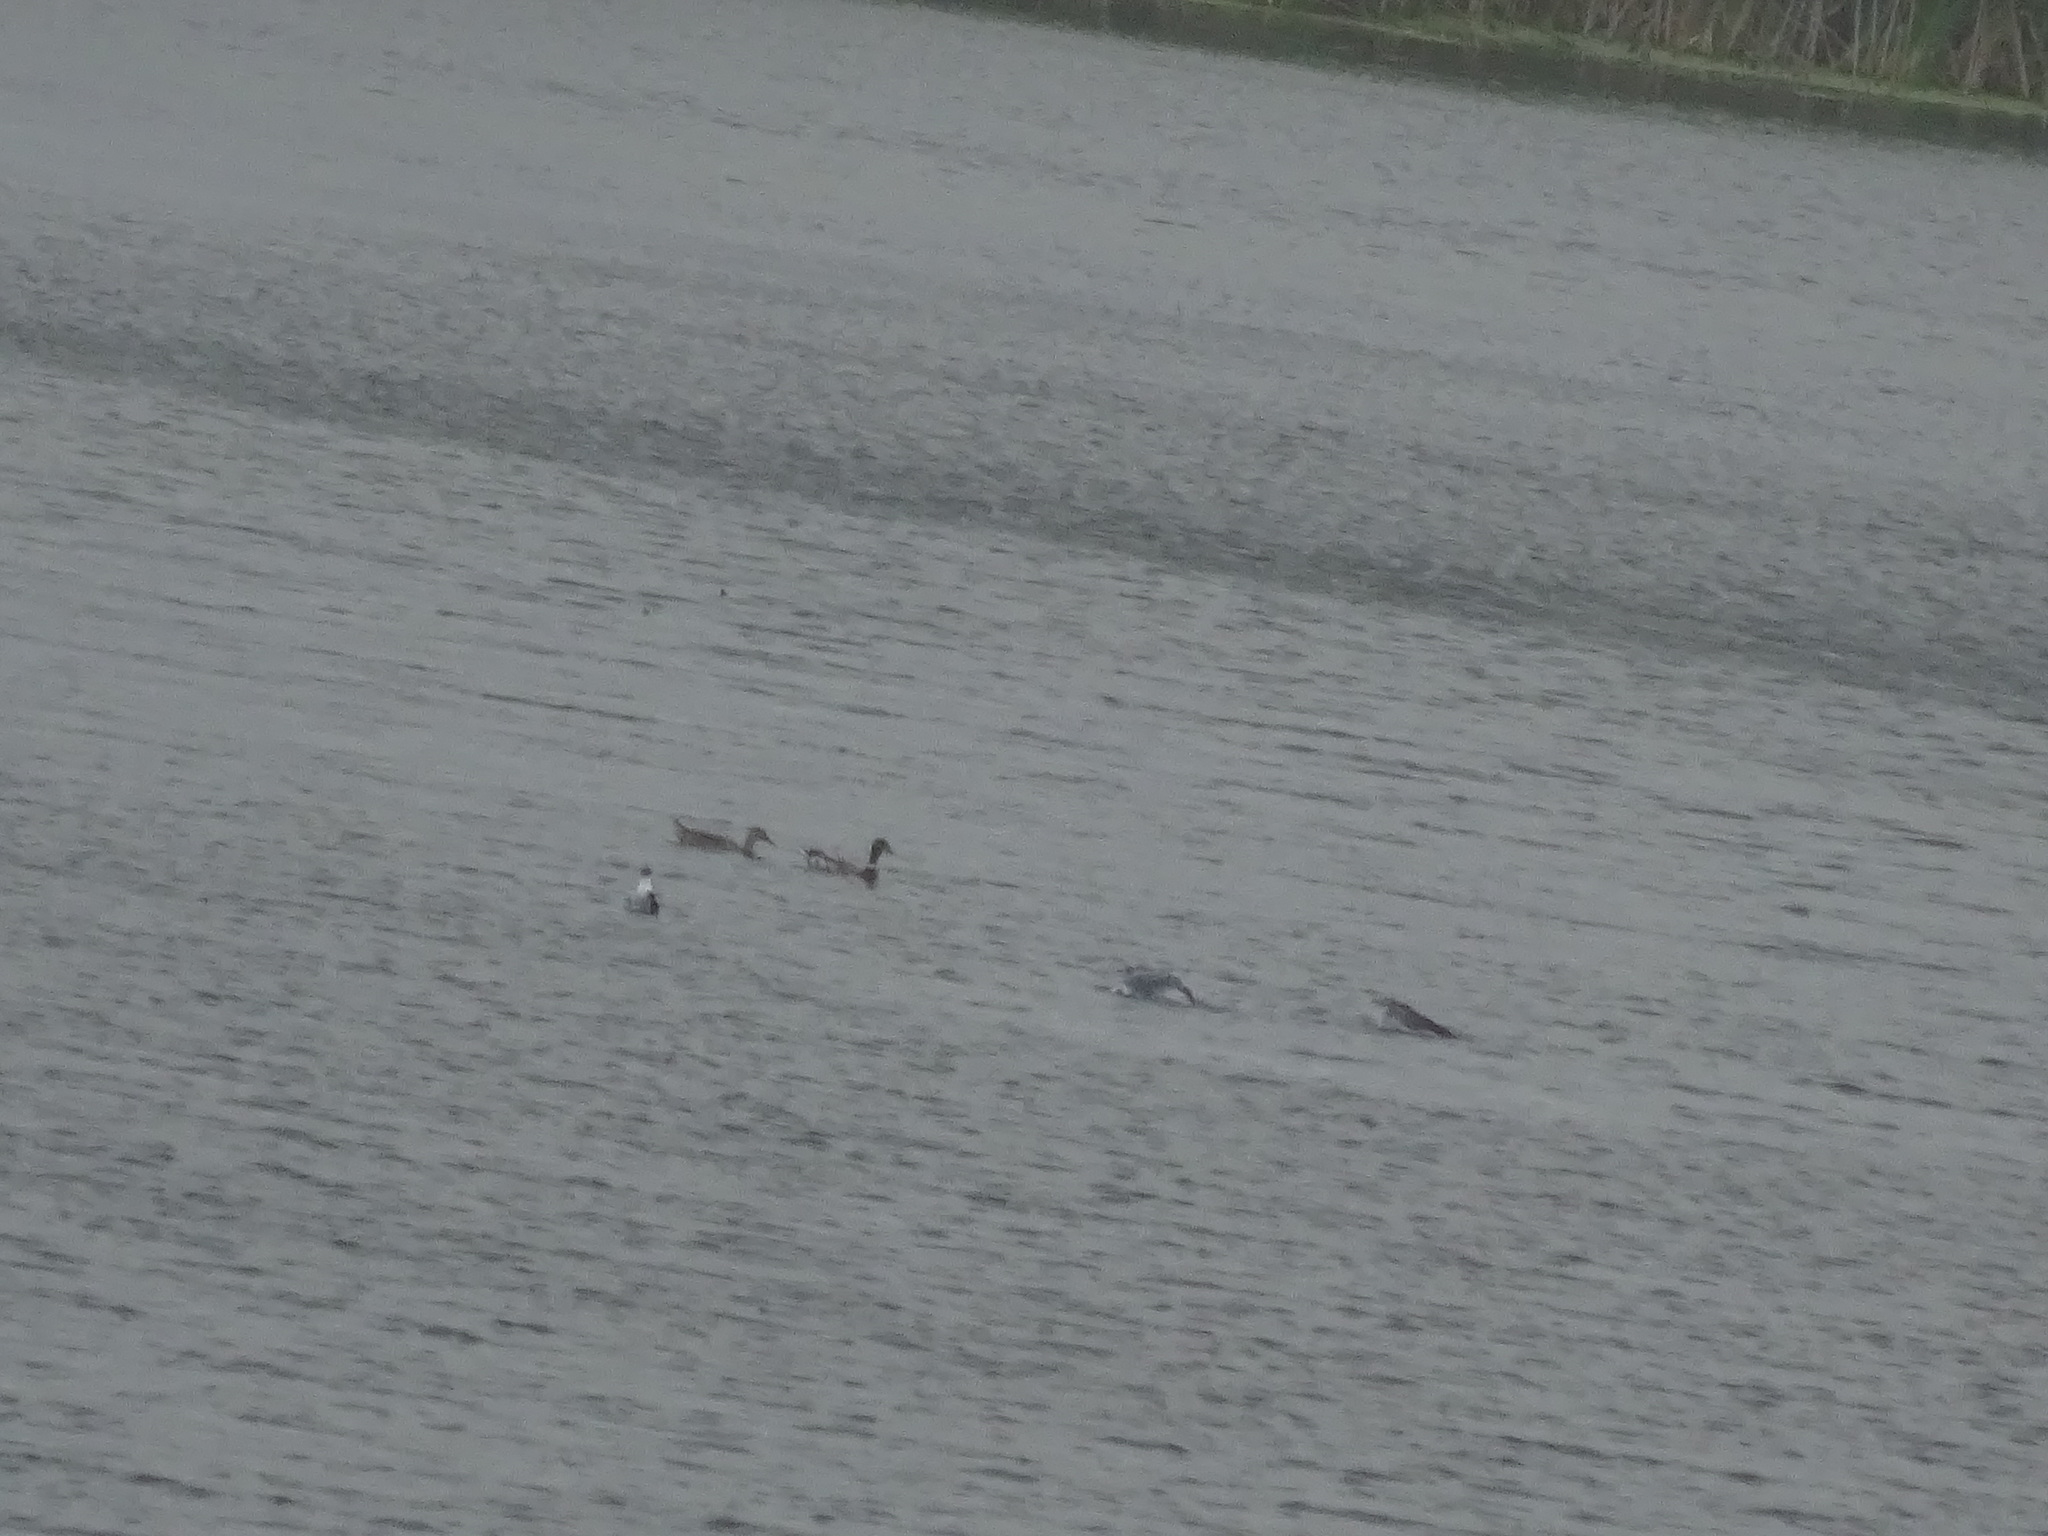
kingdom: Animalia
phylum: Chordata
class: Aves
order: Charadriiformes
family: Laridae
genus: Leucophaeus
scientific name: Leucophaeus atricilla
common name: Laughing gull
